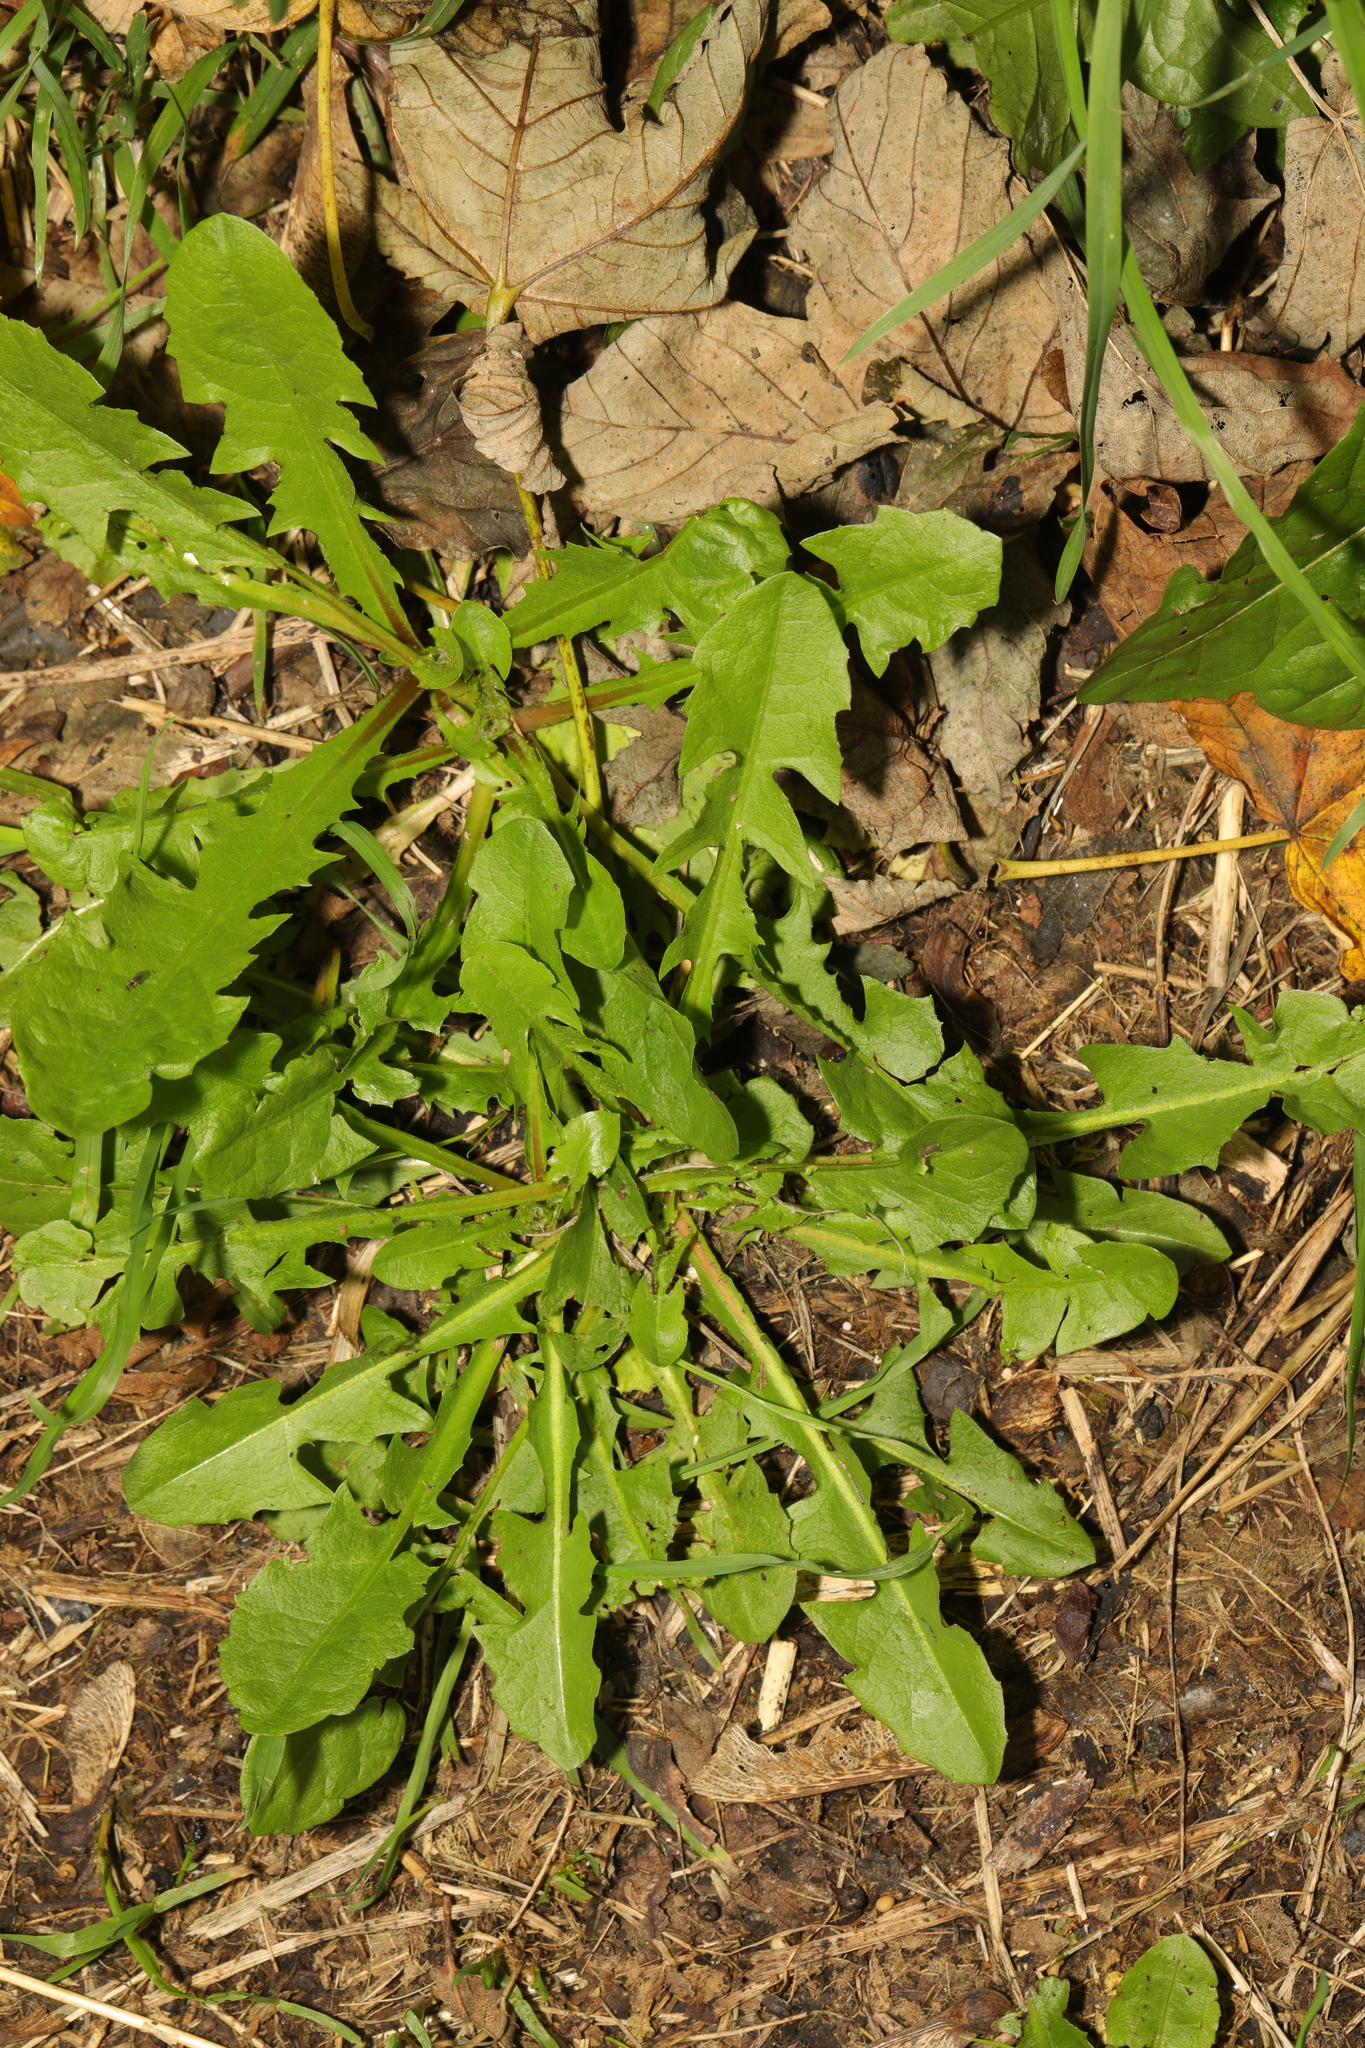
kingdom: Plantae
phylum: Tracheophyta
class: Magnoliopsida
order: Asterales
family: Asteraceae
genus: Taraxacum
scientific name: Taraxacum officinale
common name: Common dandelion
